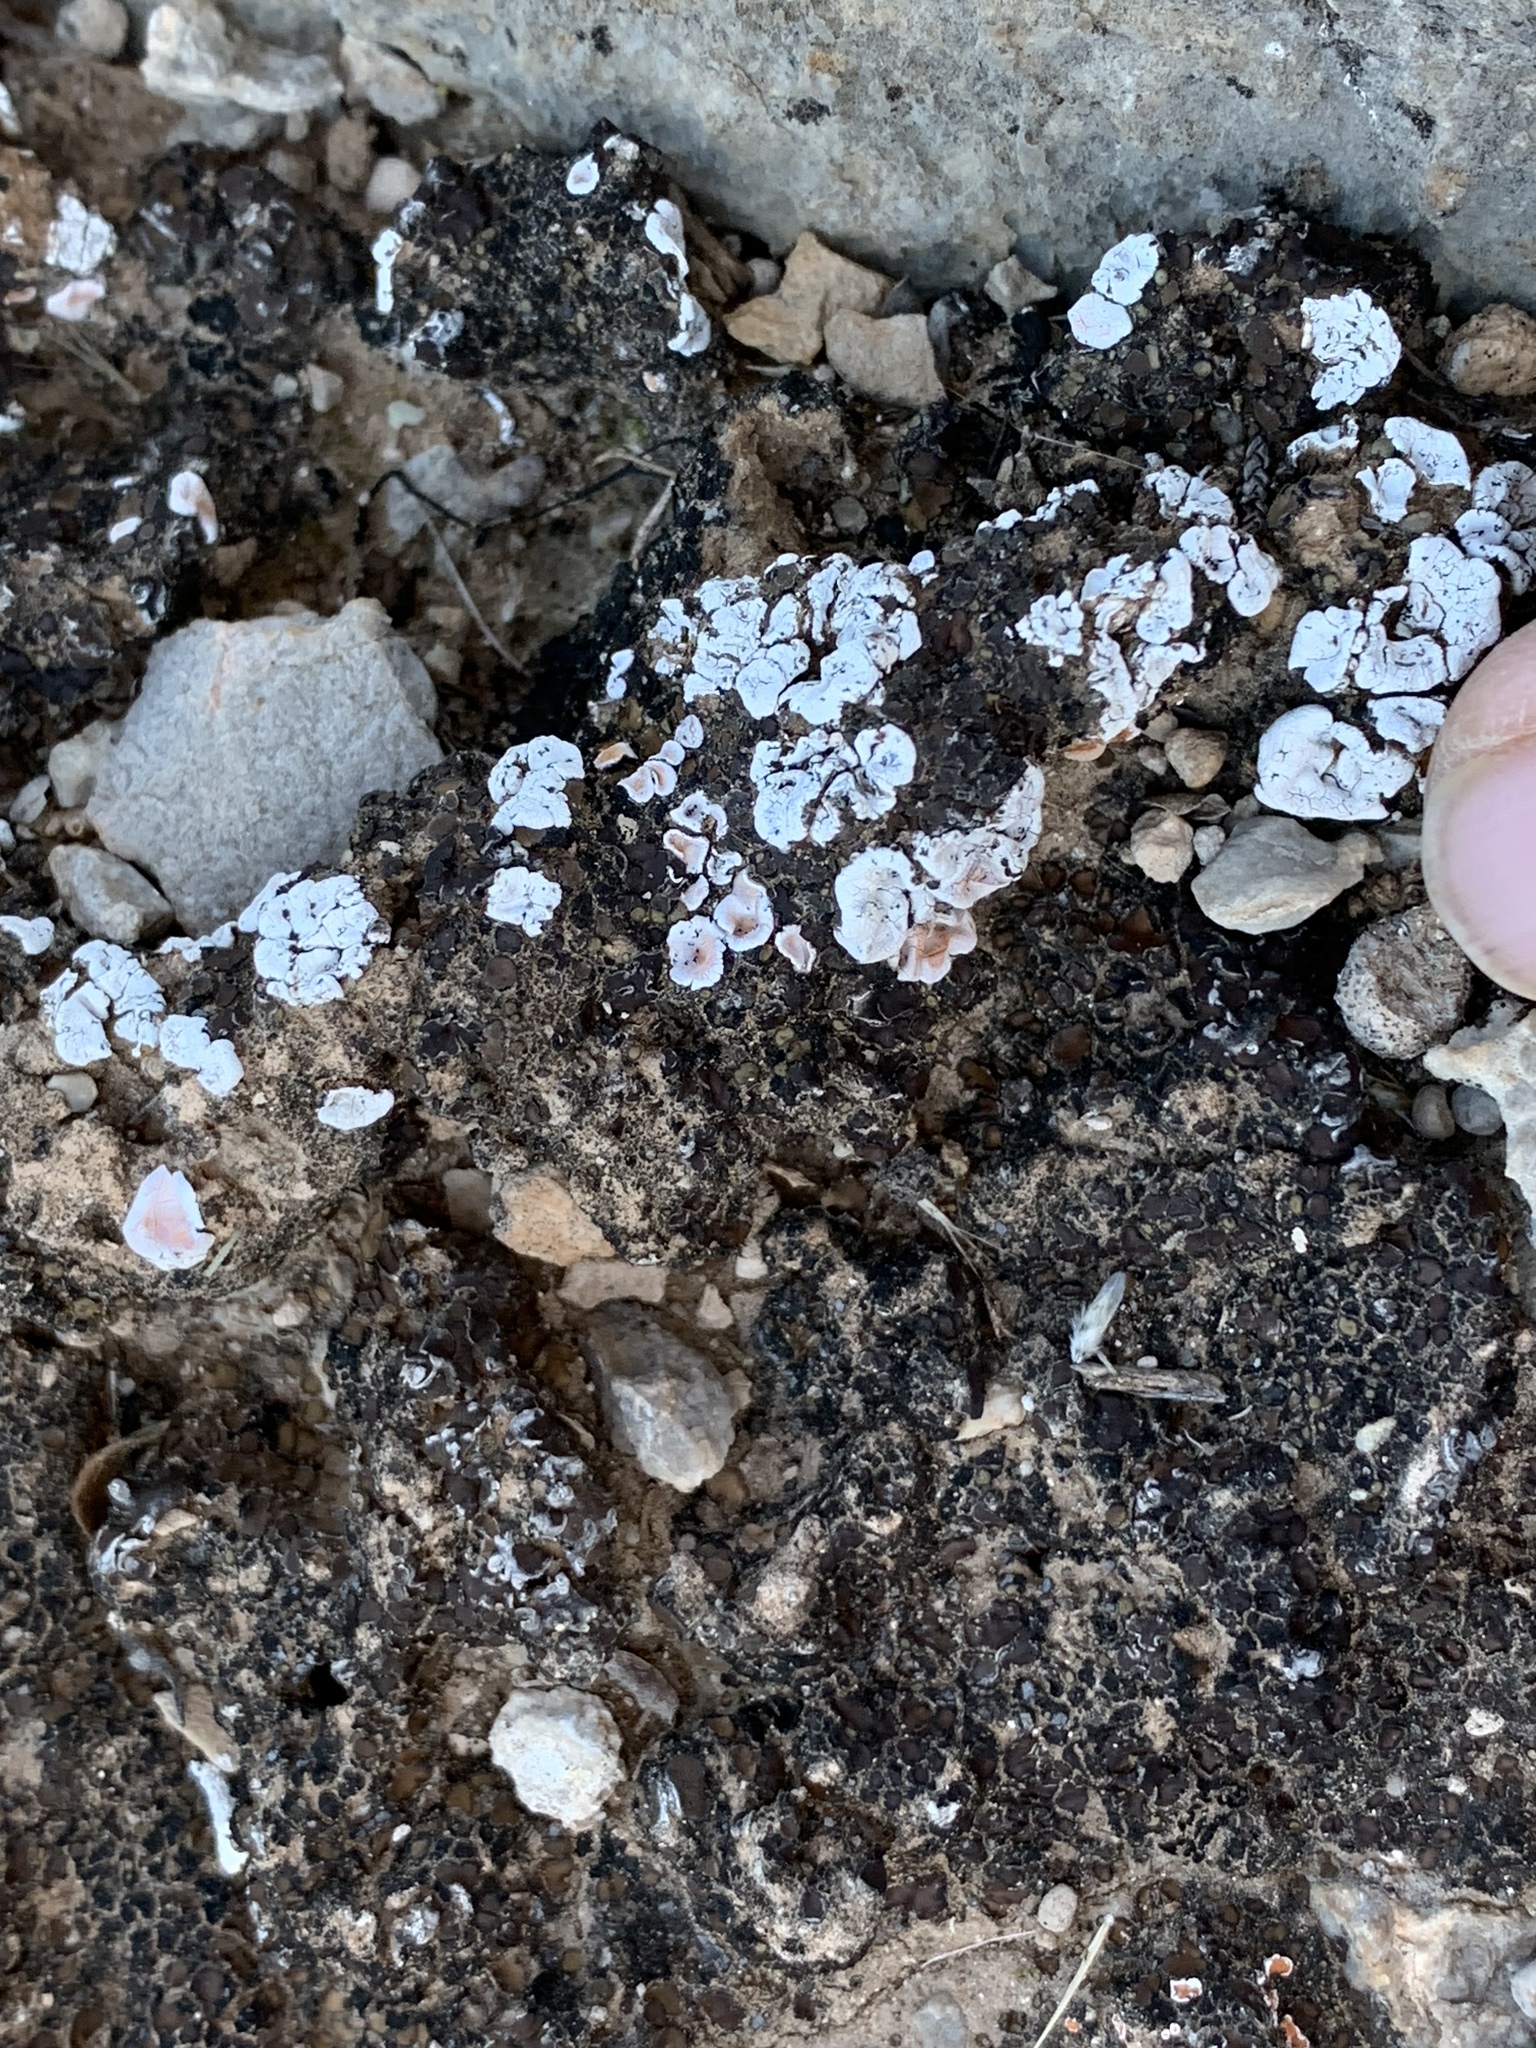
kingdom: Fungi
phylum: Ascomycota
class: Lecanoromycetes
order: Lecanorales
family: Psoraceae
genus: Psora
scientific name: Psora crenata
